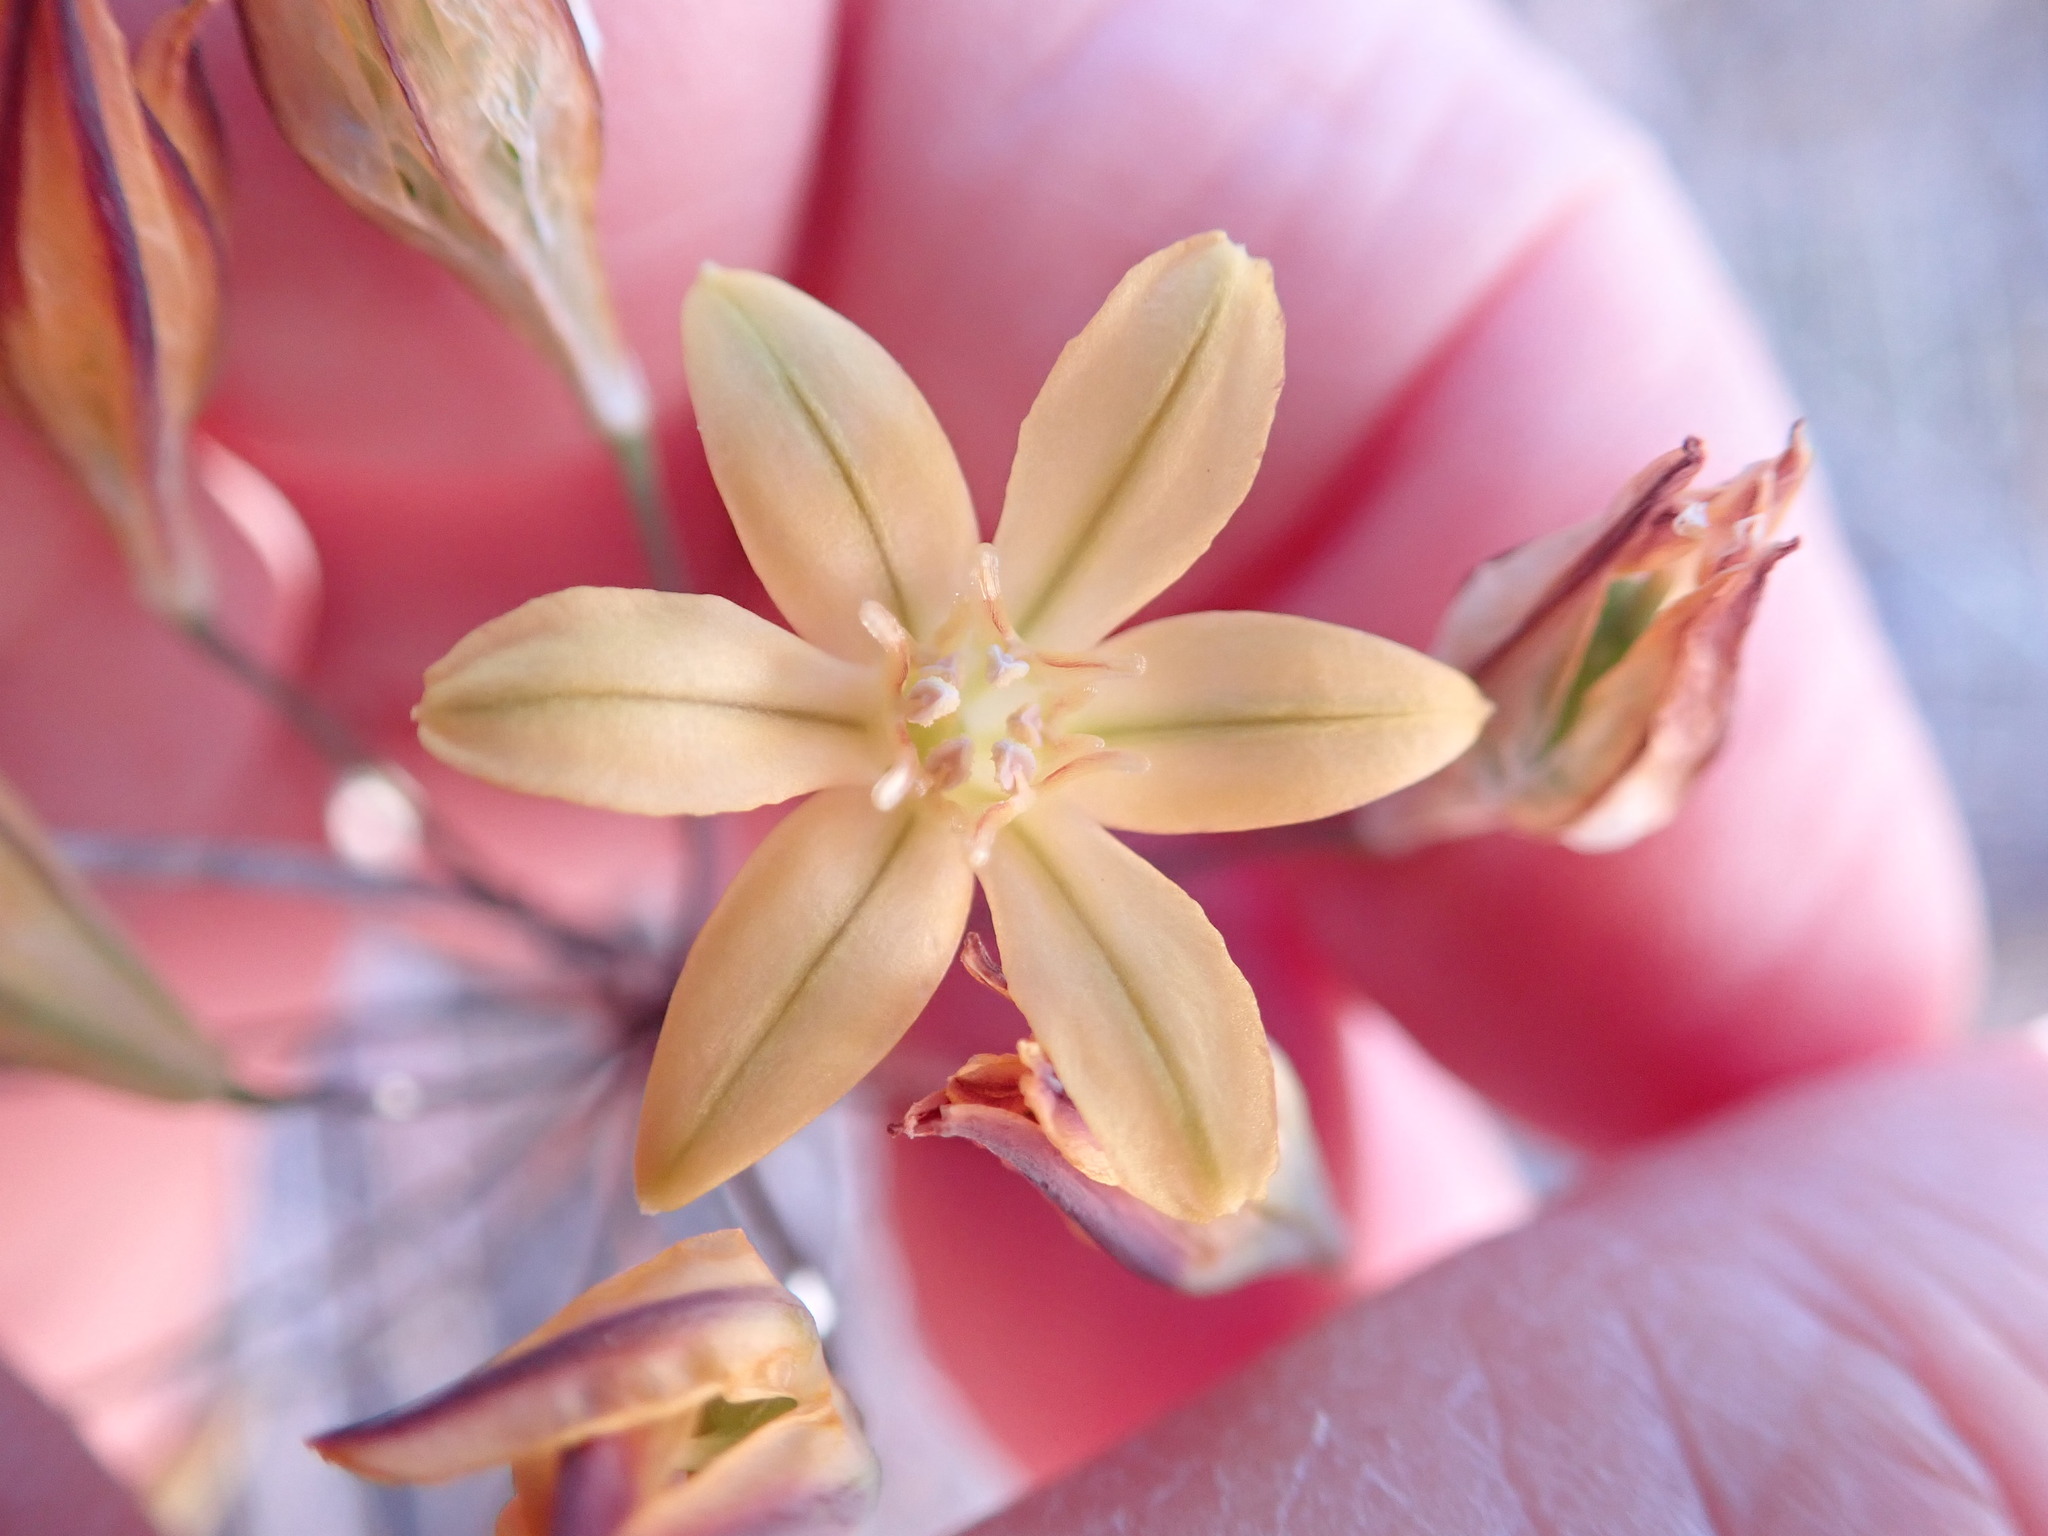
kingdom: Plantae
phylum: Tracheophyta
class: Liliopsida
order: Asparagales
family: Asparagaceae
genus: Triteleia
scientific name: Triteleia ixioides
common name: Yellow-brodiaea
